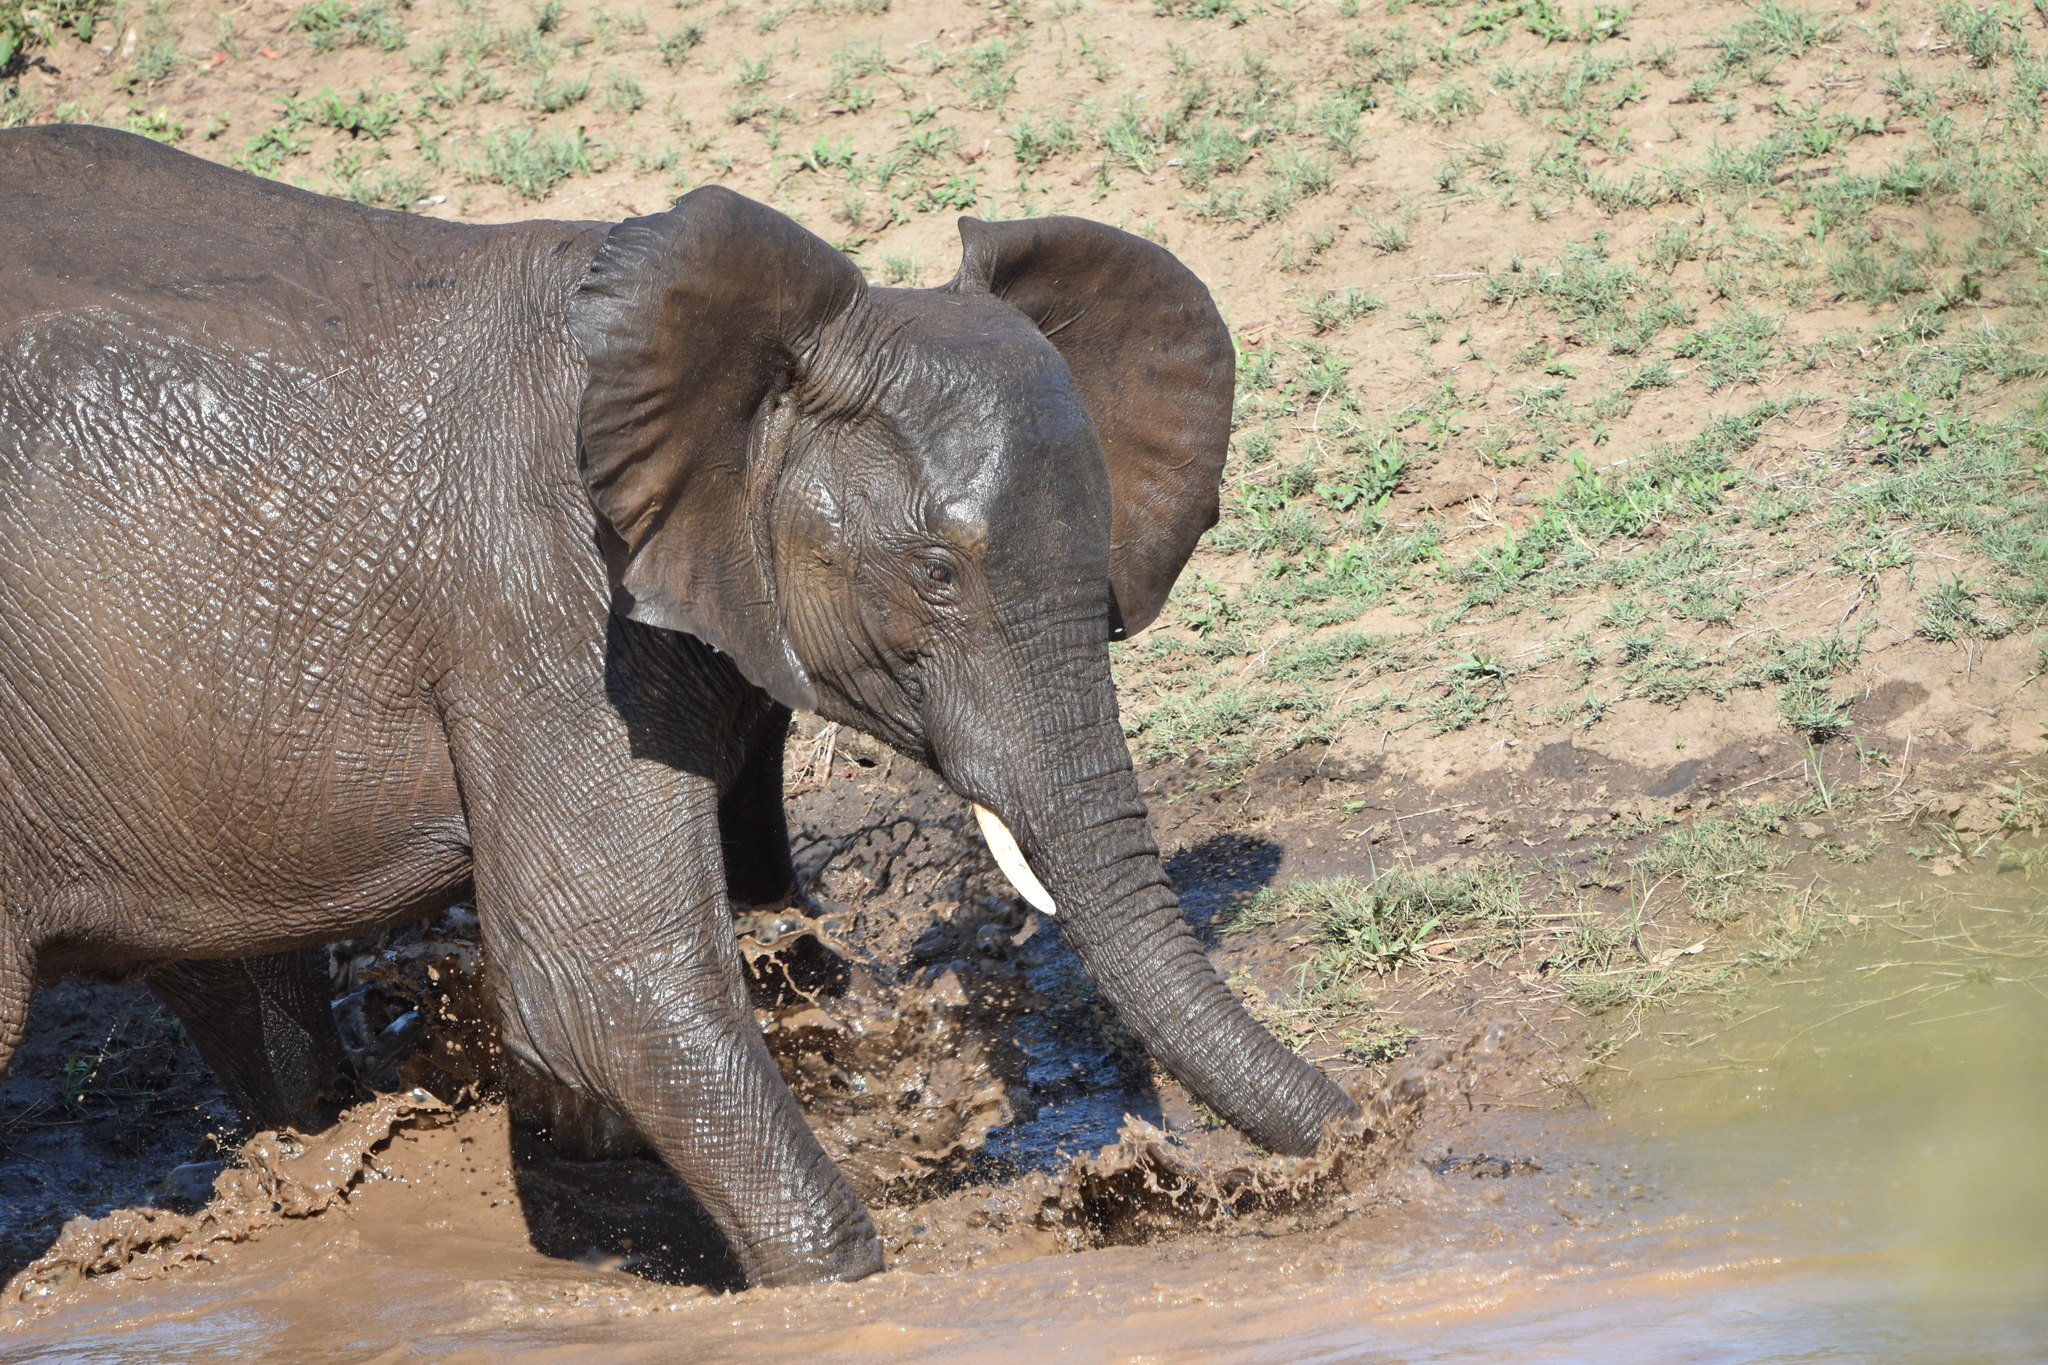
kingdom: Animalia
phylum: Chordata
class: Mammalia
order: Proboscidea
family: Elephantidae
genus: Loxodonta
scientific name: Loxodonta africana
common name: African elephant
